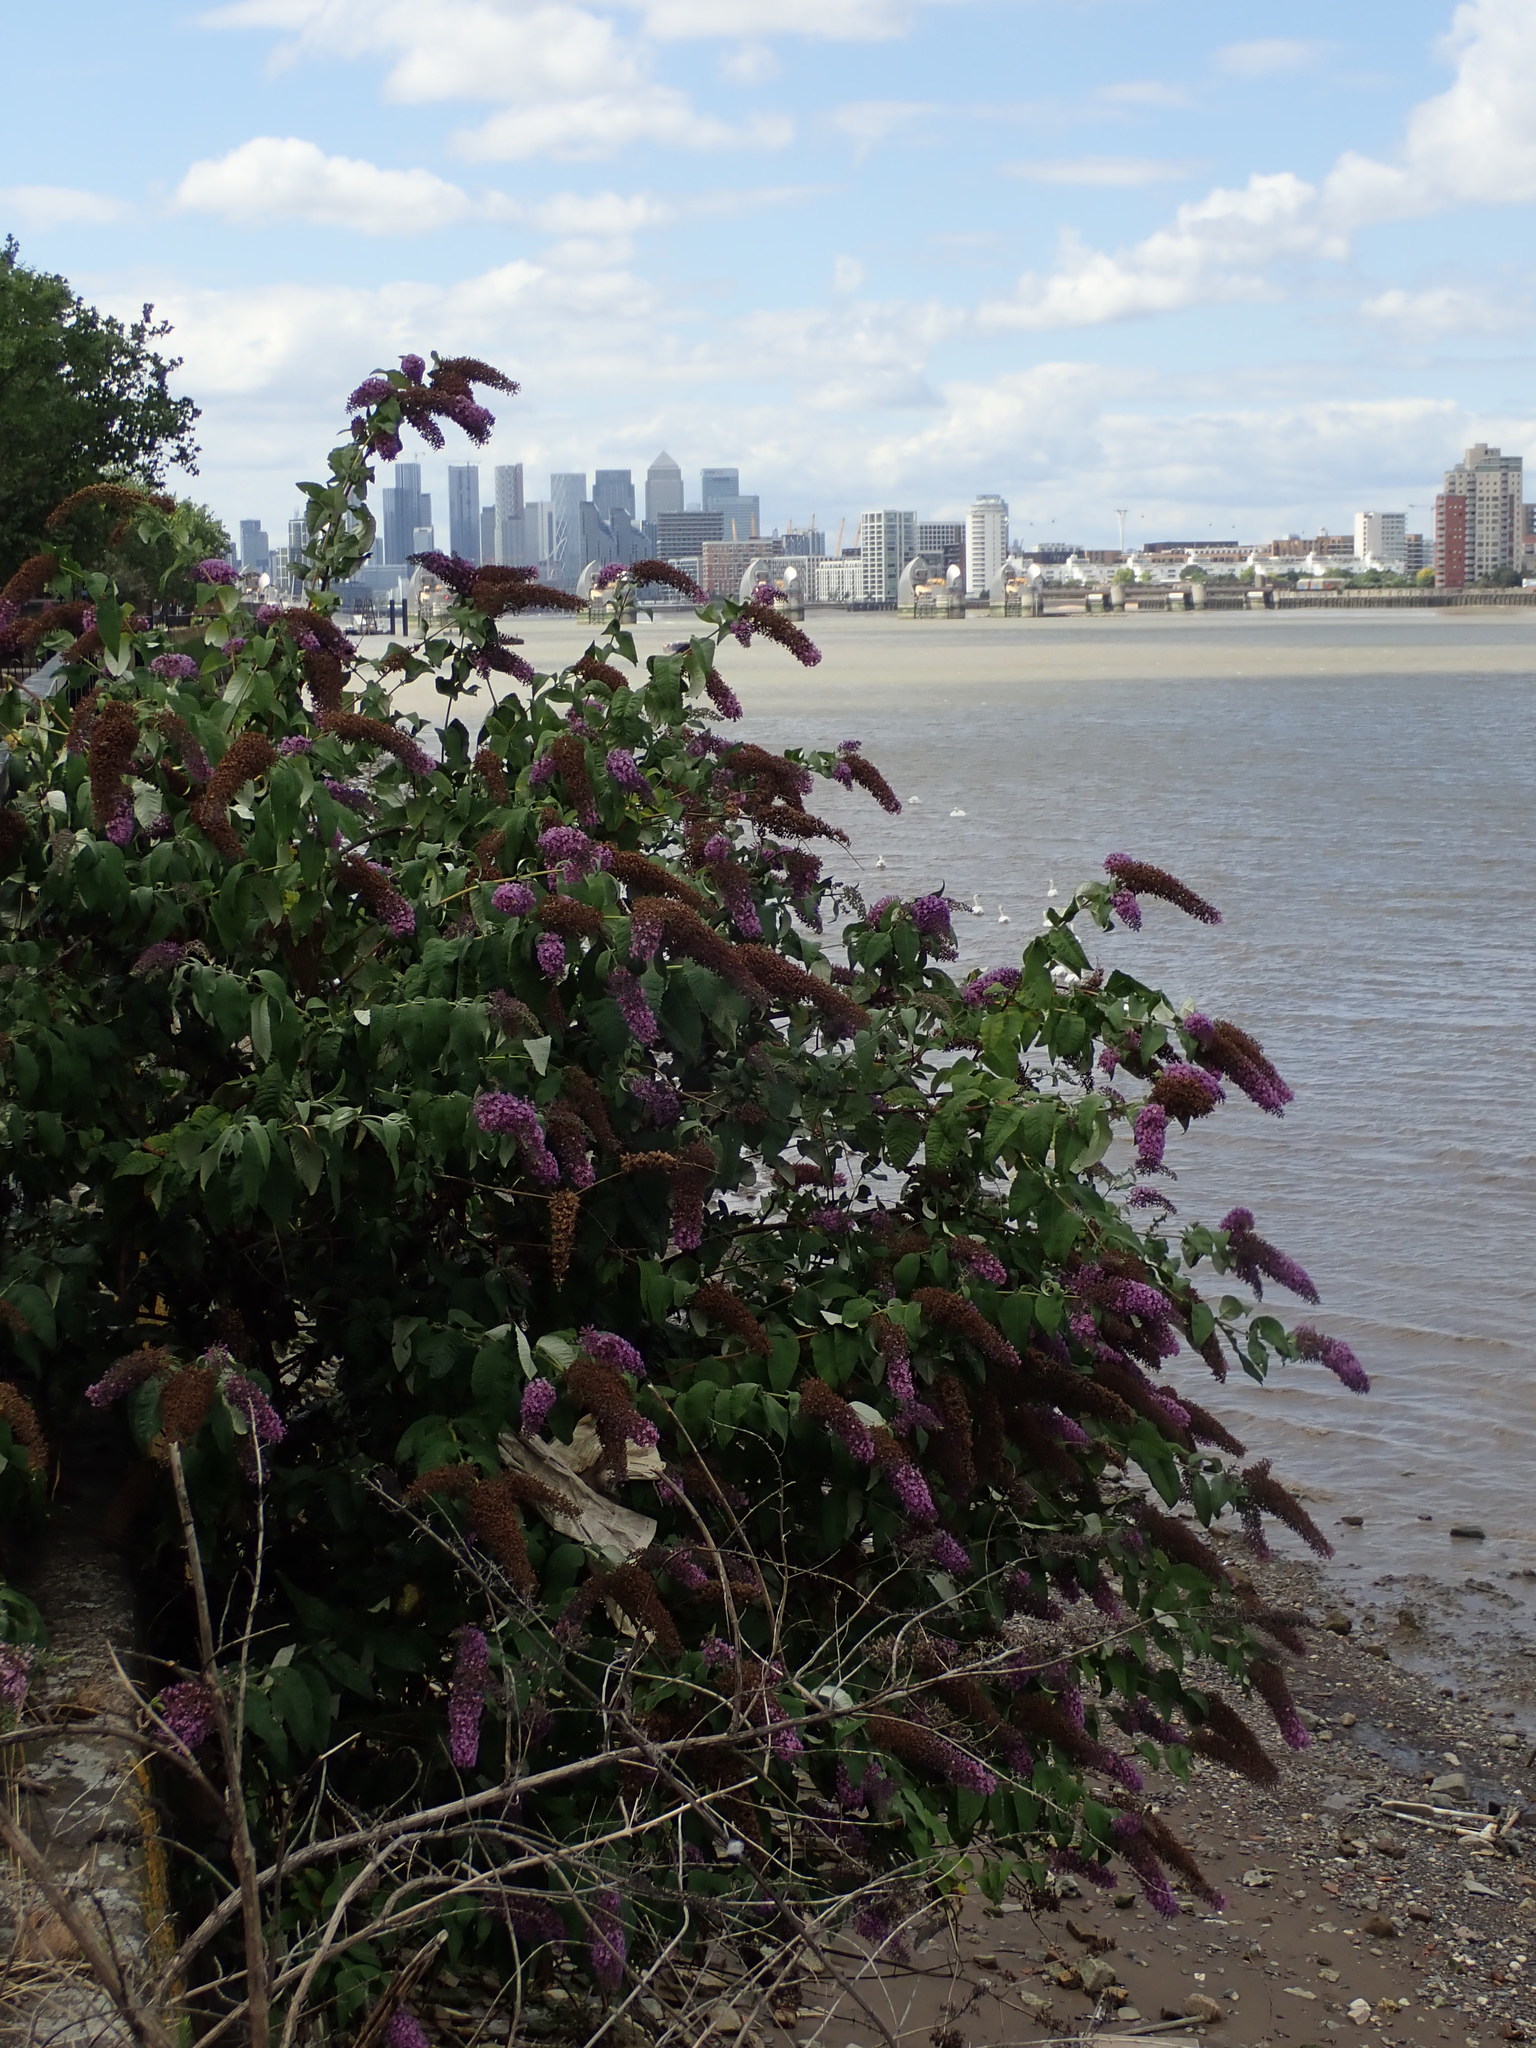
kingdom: Plantae
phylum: Tracheophyta
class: Magnoliopsida
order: Lamiales
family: Scrophulariaceae
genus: Buddleja
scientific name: Buddleja davidii
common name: Butterfly-bush
